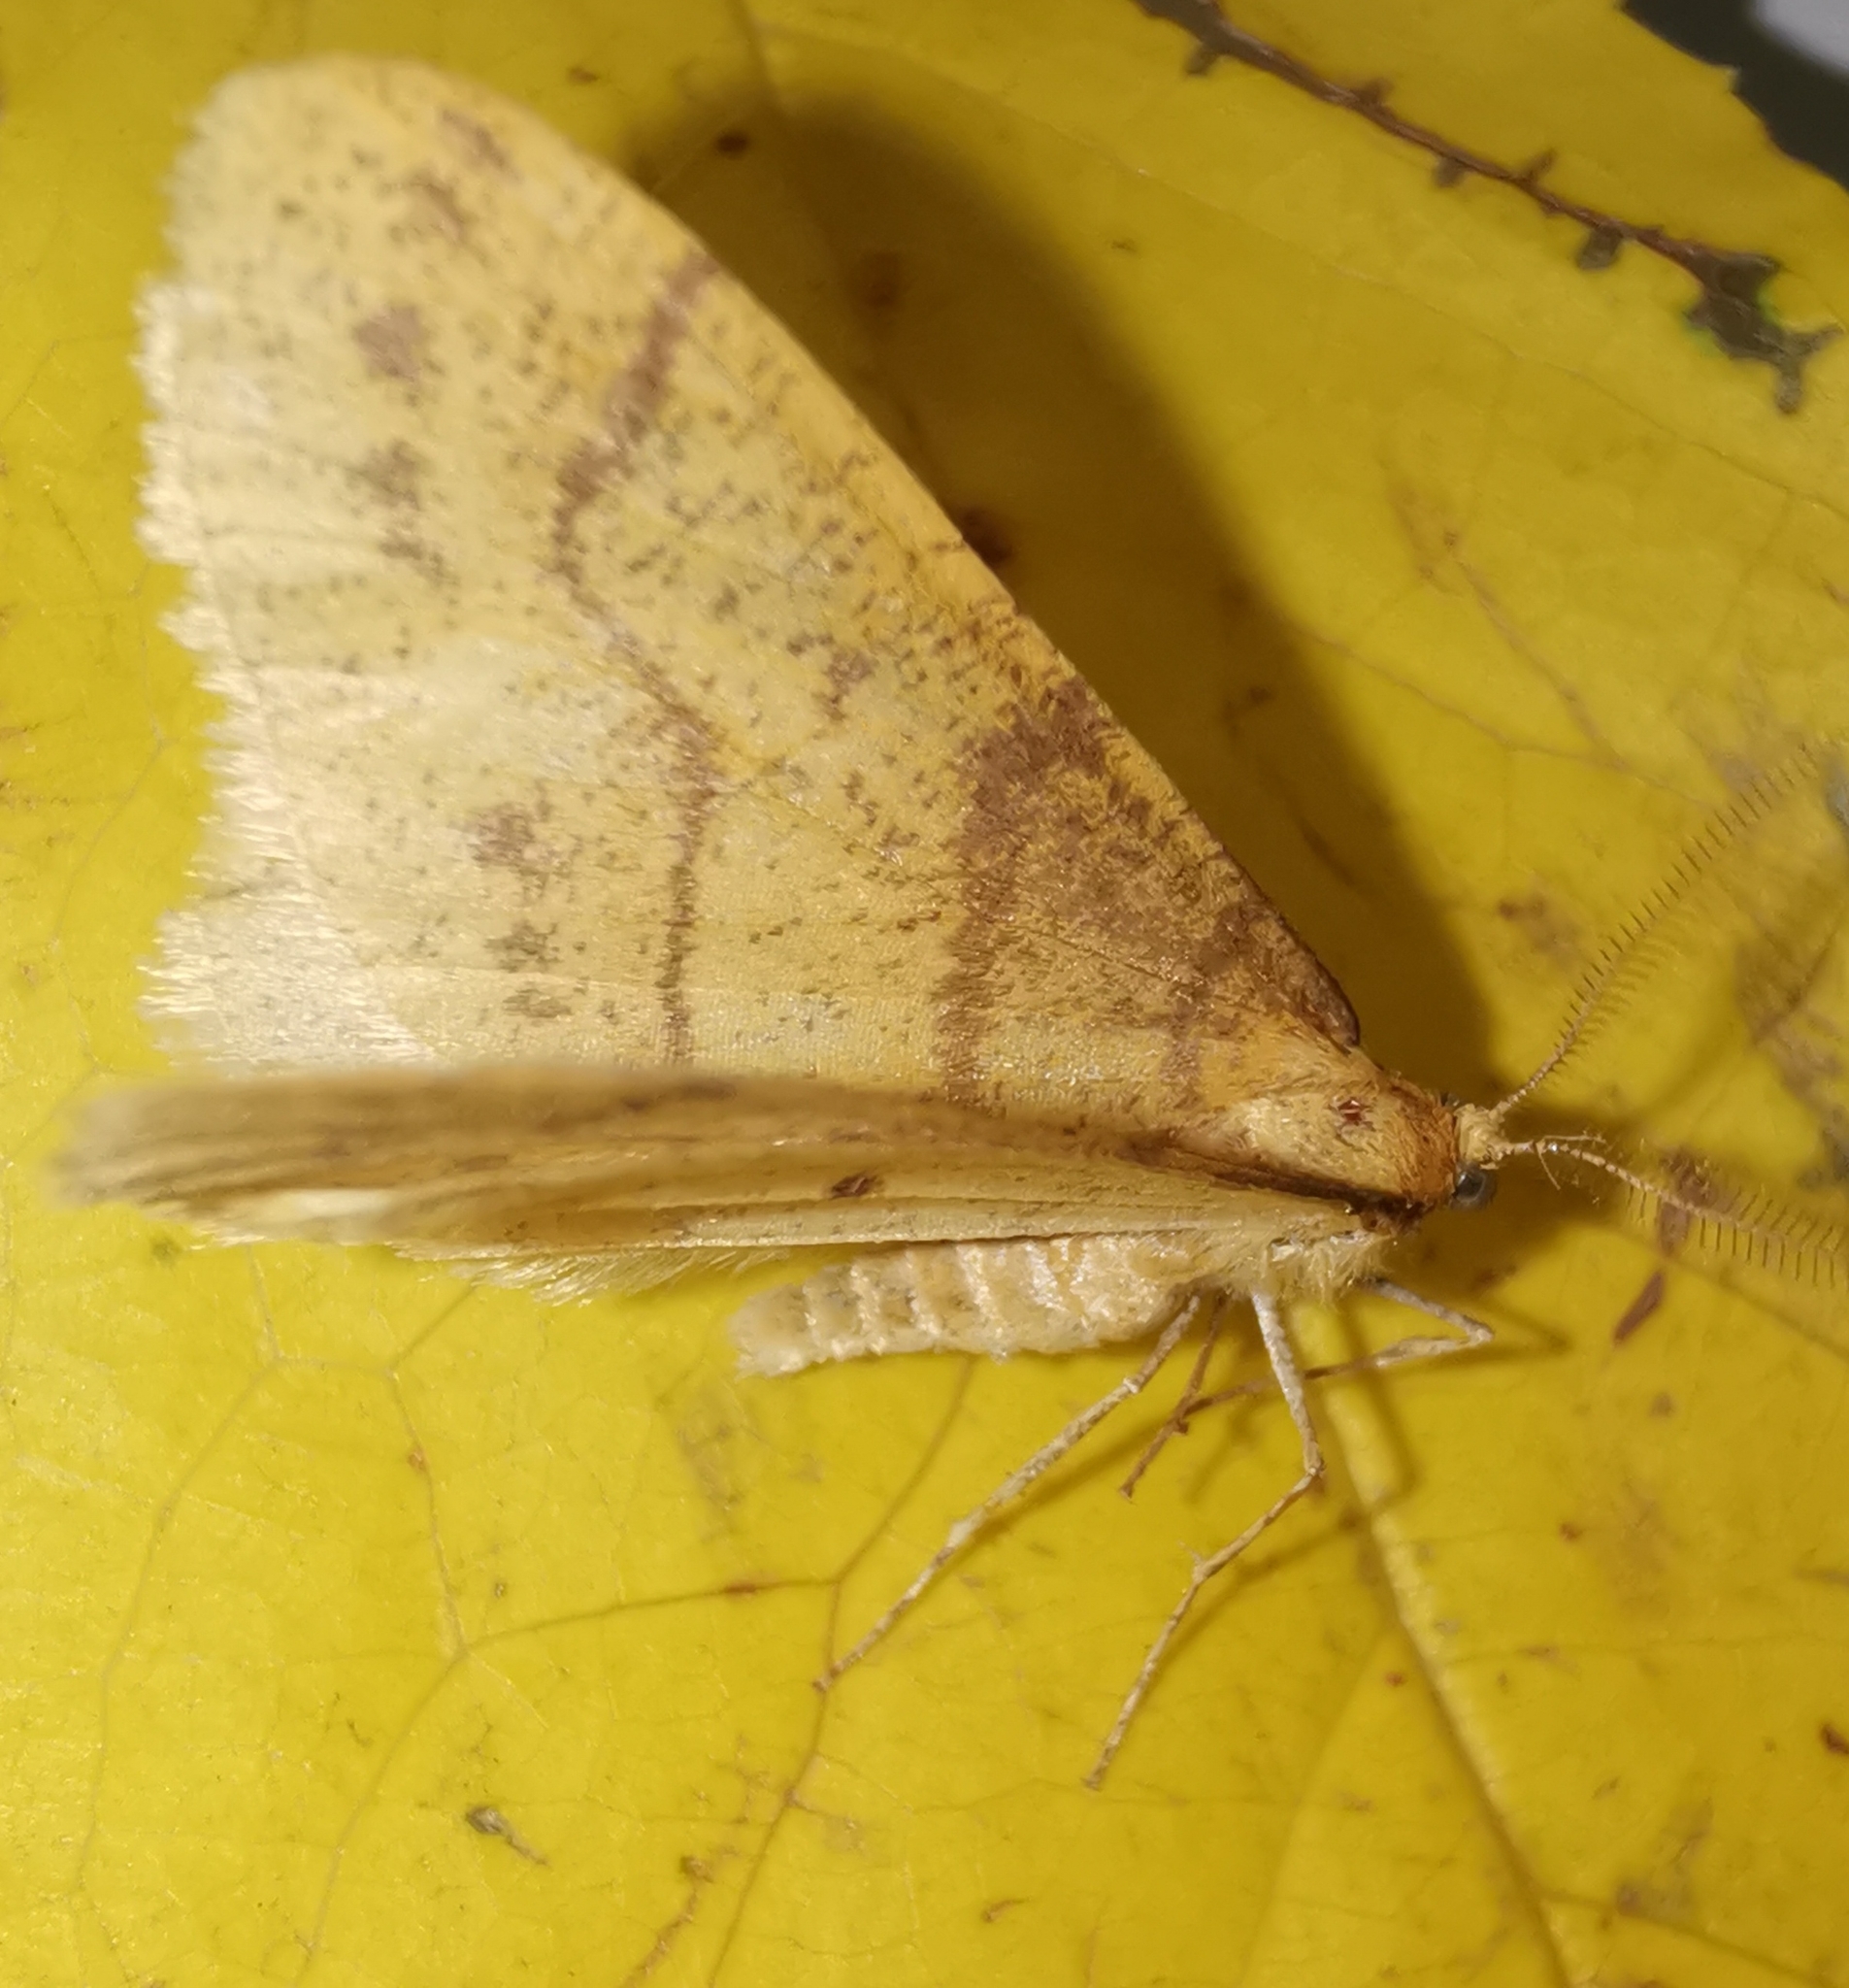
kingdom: Animalia
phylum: Arthropoda
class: Insecta
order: Lepidoptera
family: Geometridae
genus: Agriopis
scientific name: Agriopis aurantiaria
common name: Scarce umber
